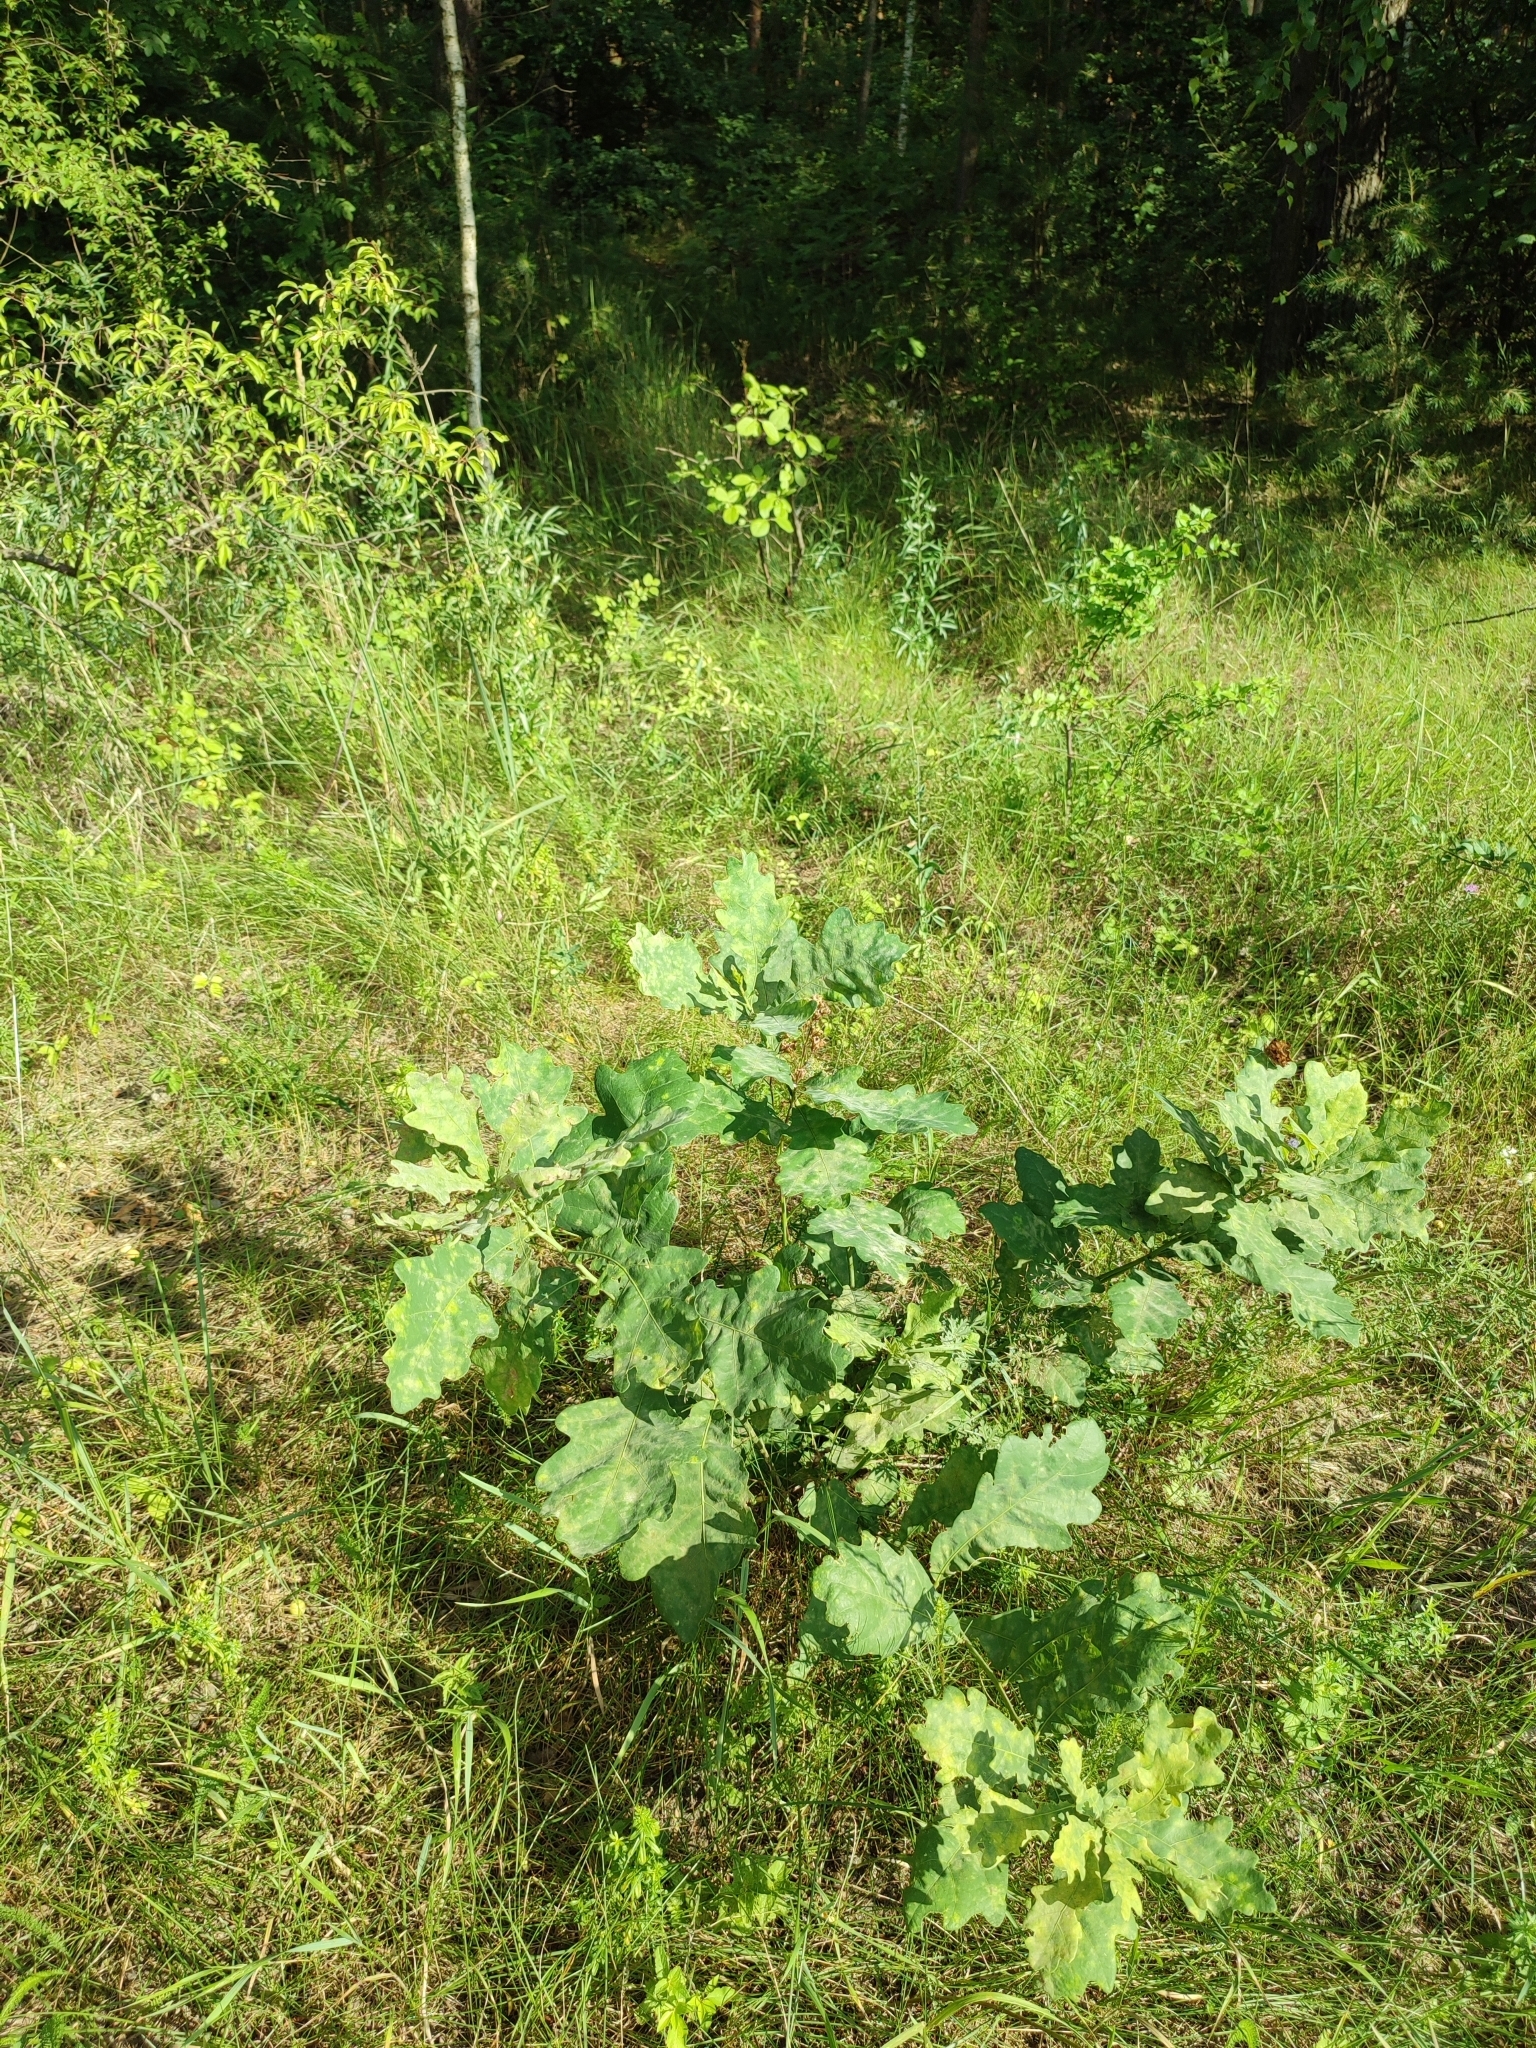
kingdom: Plantae
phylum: Tracheophyta
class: Magnoliopsida
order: Fagales
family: Fagaceae
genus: Quercus
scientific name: Quercus robur
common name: Pedunculate oak
